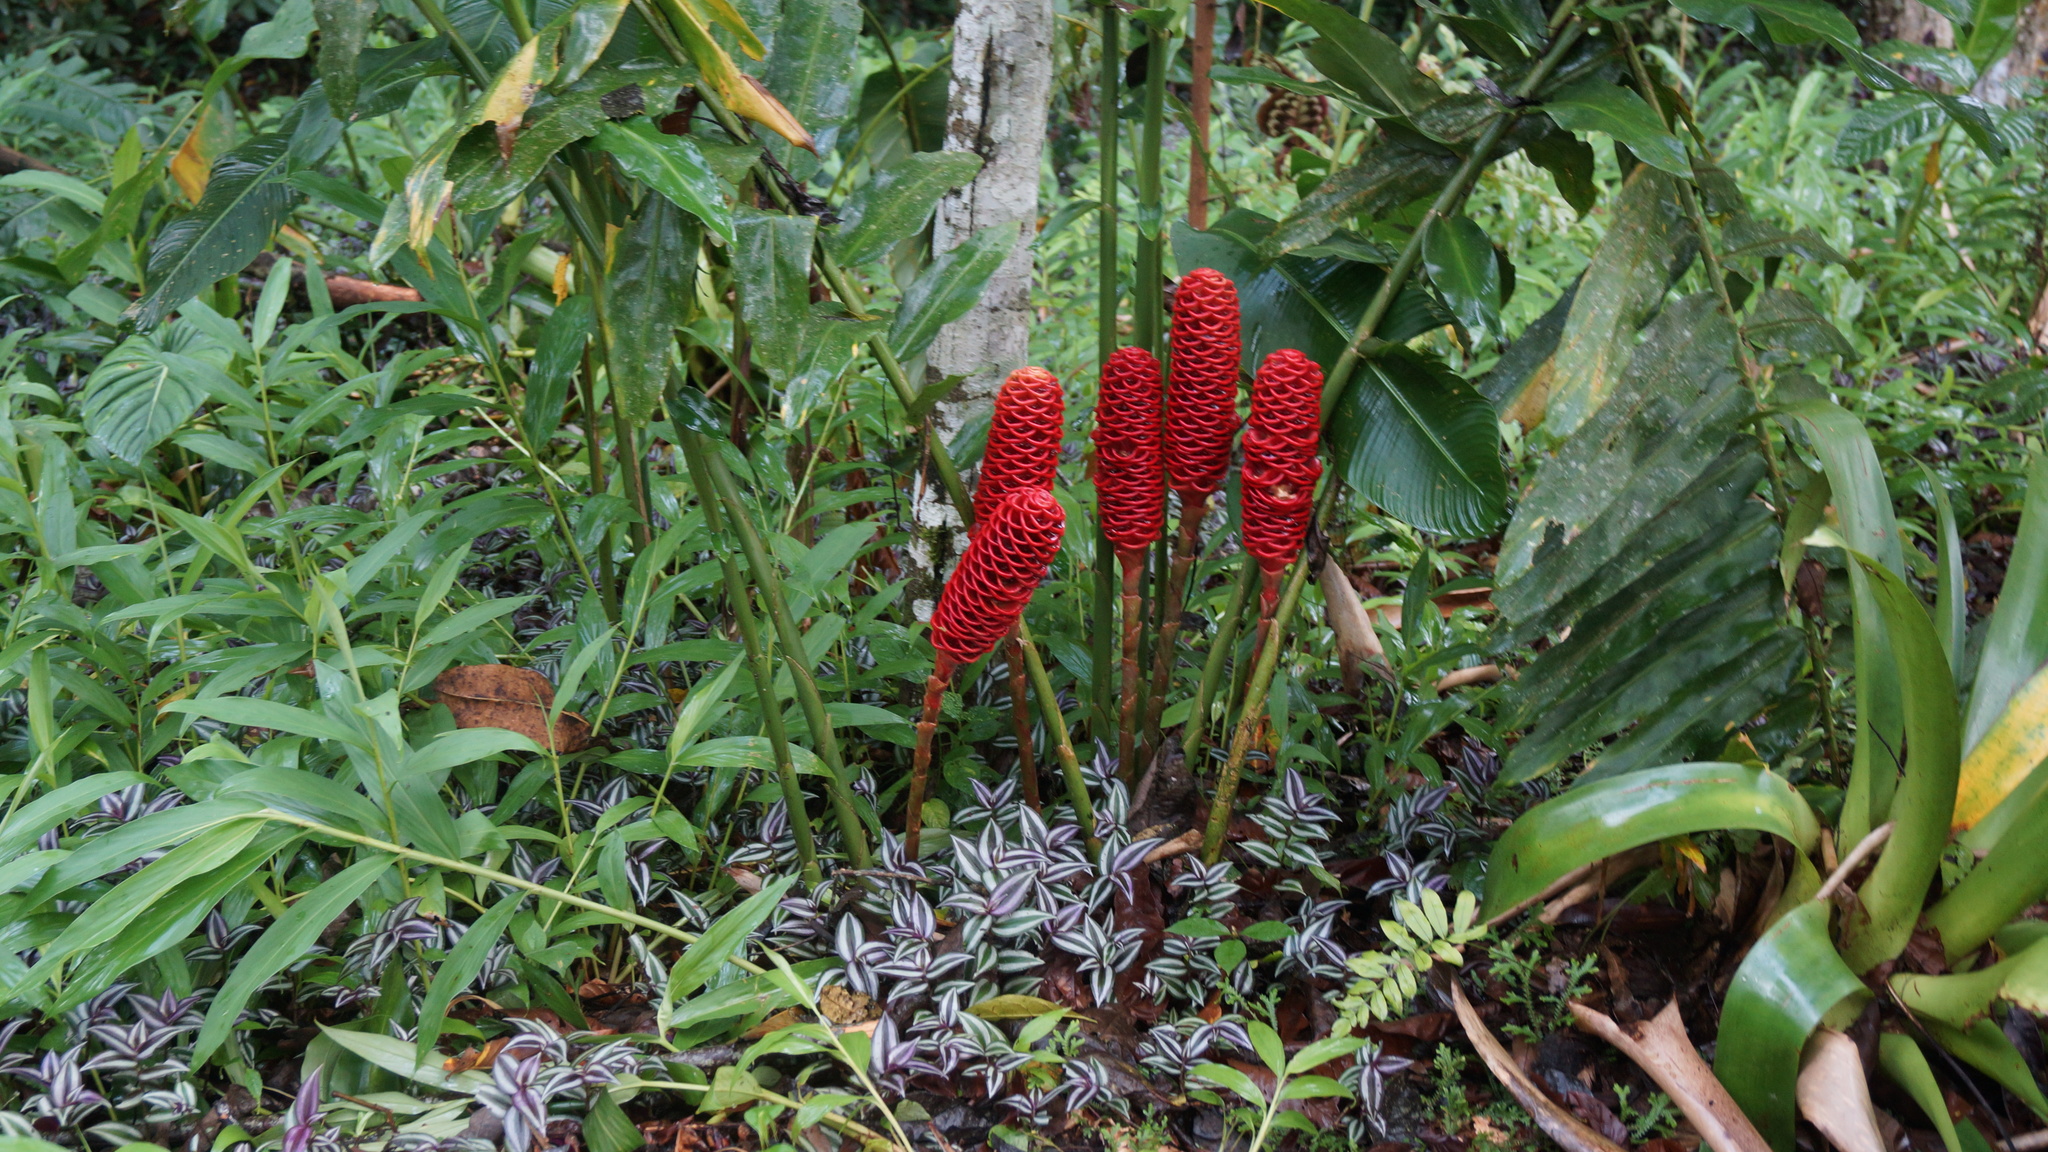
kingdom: Plantae
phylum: Tracheophyta
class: Liliopsida
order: Zingiberales
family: Zingiberaceae
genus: Zingiber
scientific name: Zingiber zerumbet
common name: Bitter ginger
